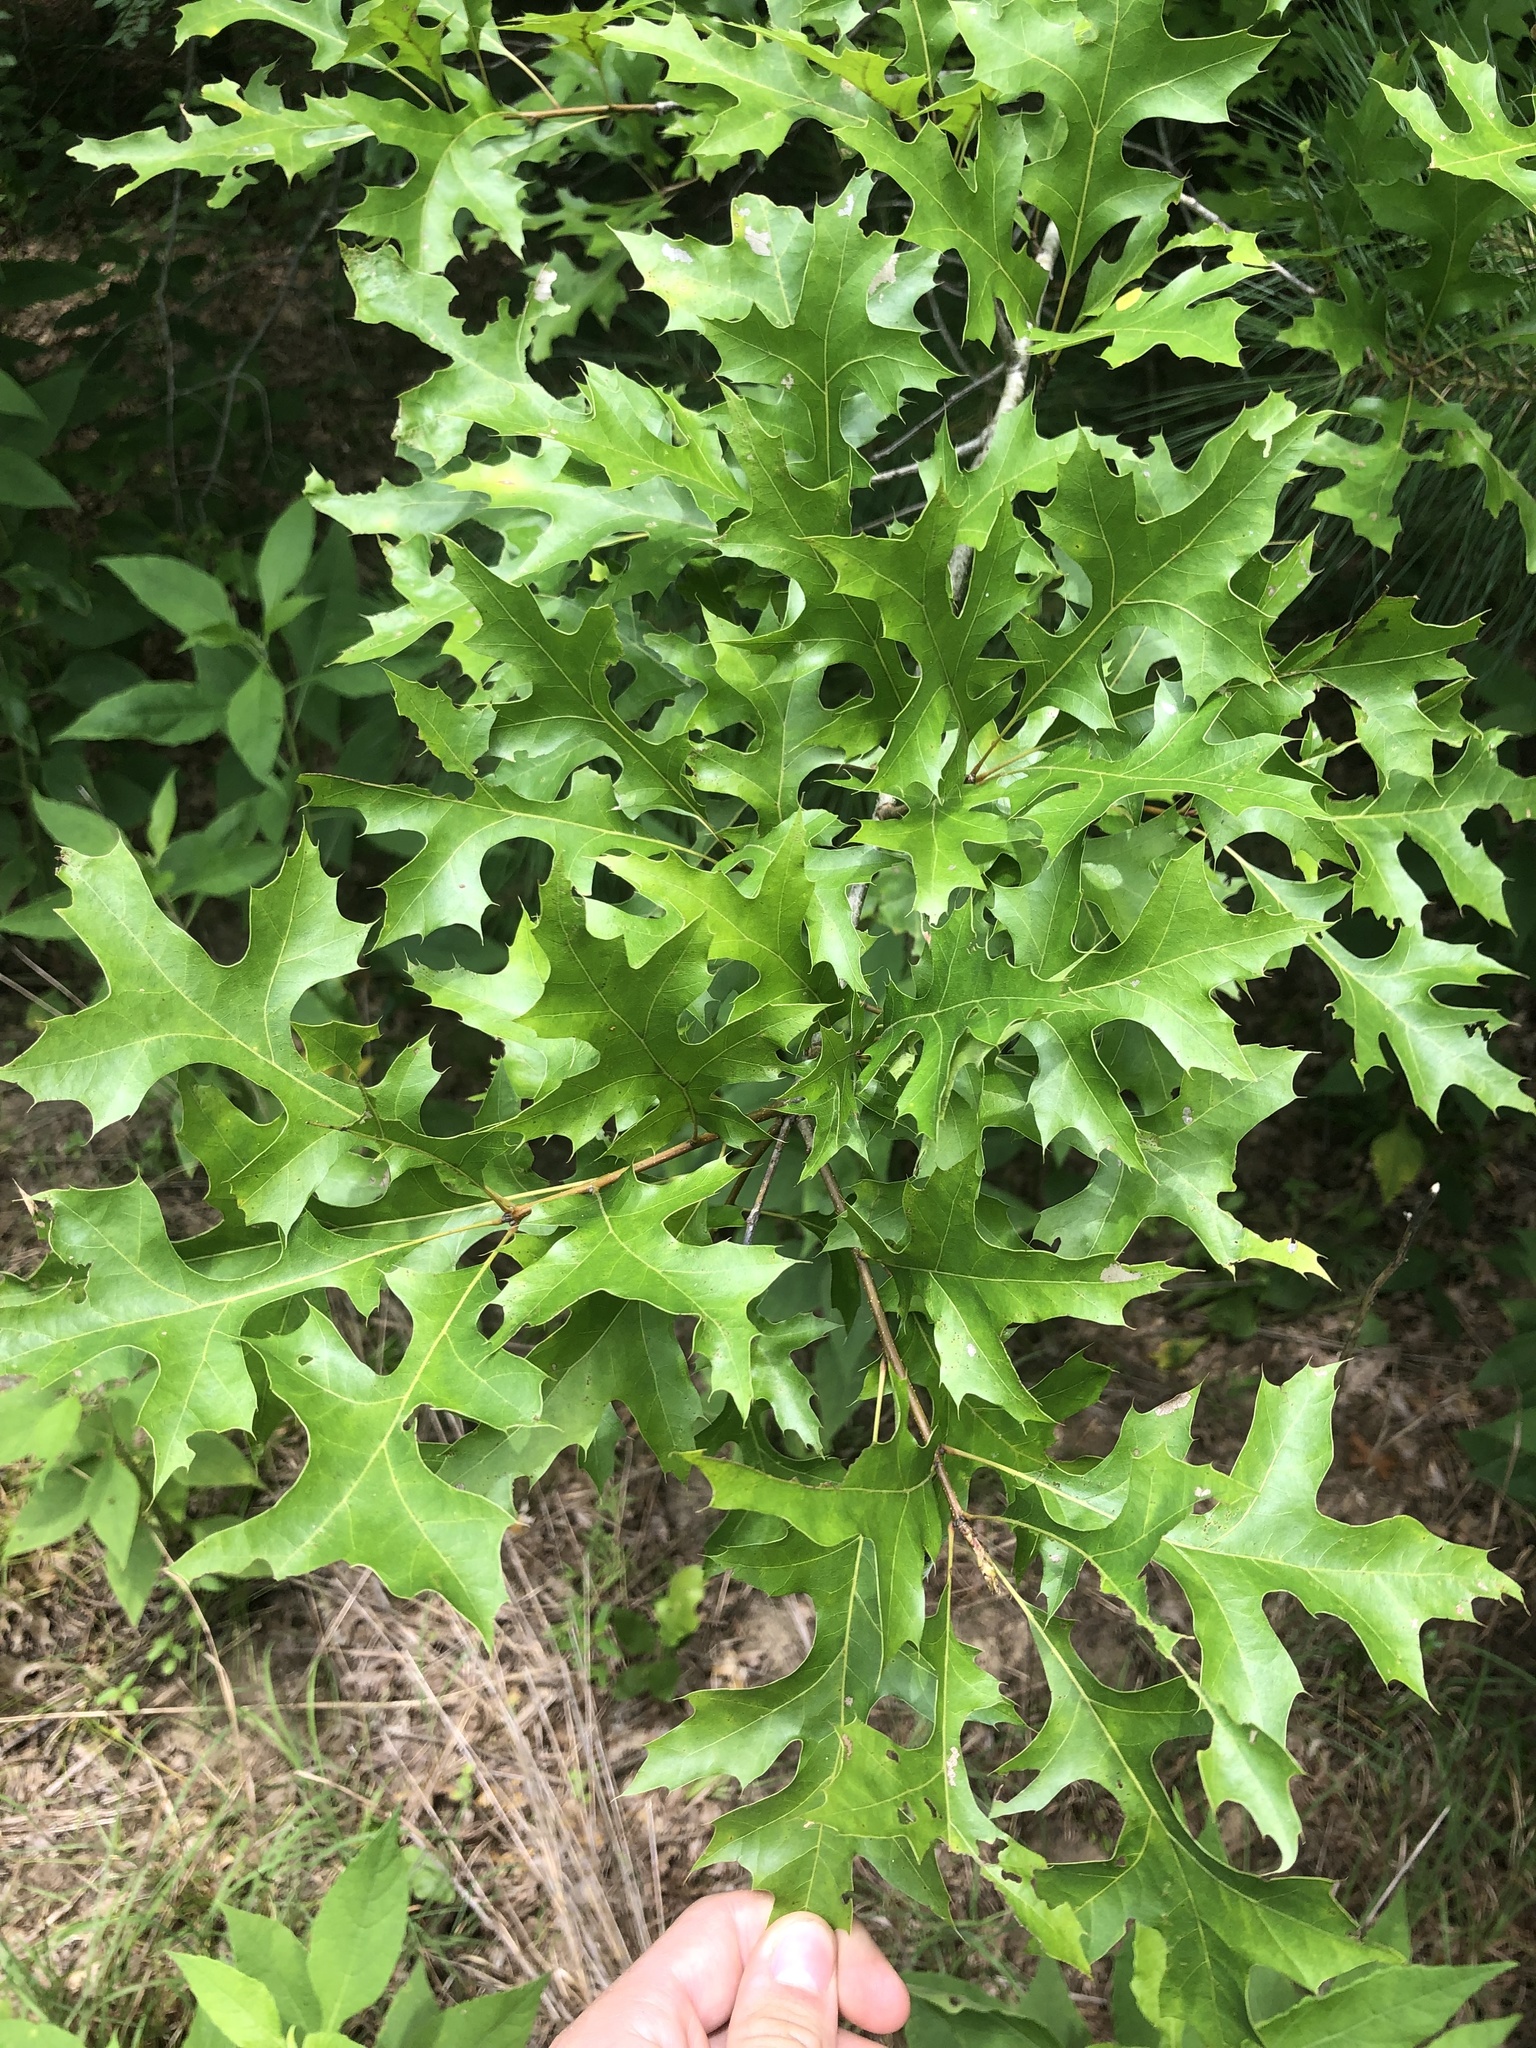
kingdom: Plantae
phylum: Tracheophyta
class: Magnoliopsida
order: Fagales
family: Fagaceae
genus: Quercus
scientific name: Quercus texana
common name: Nuttall oak
